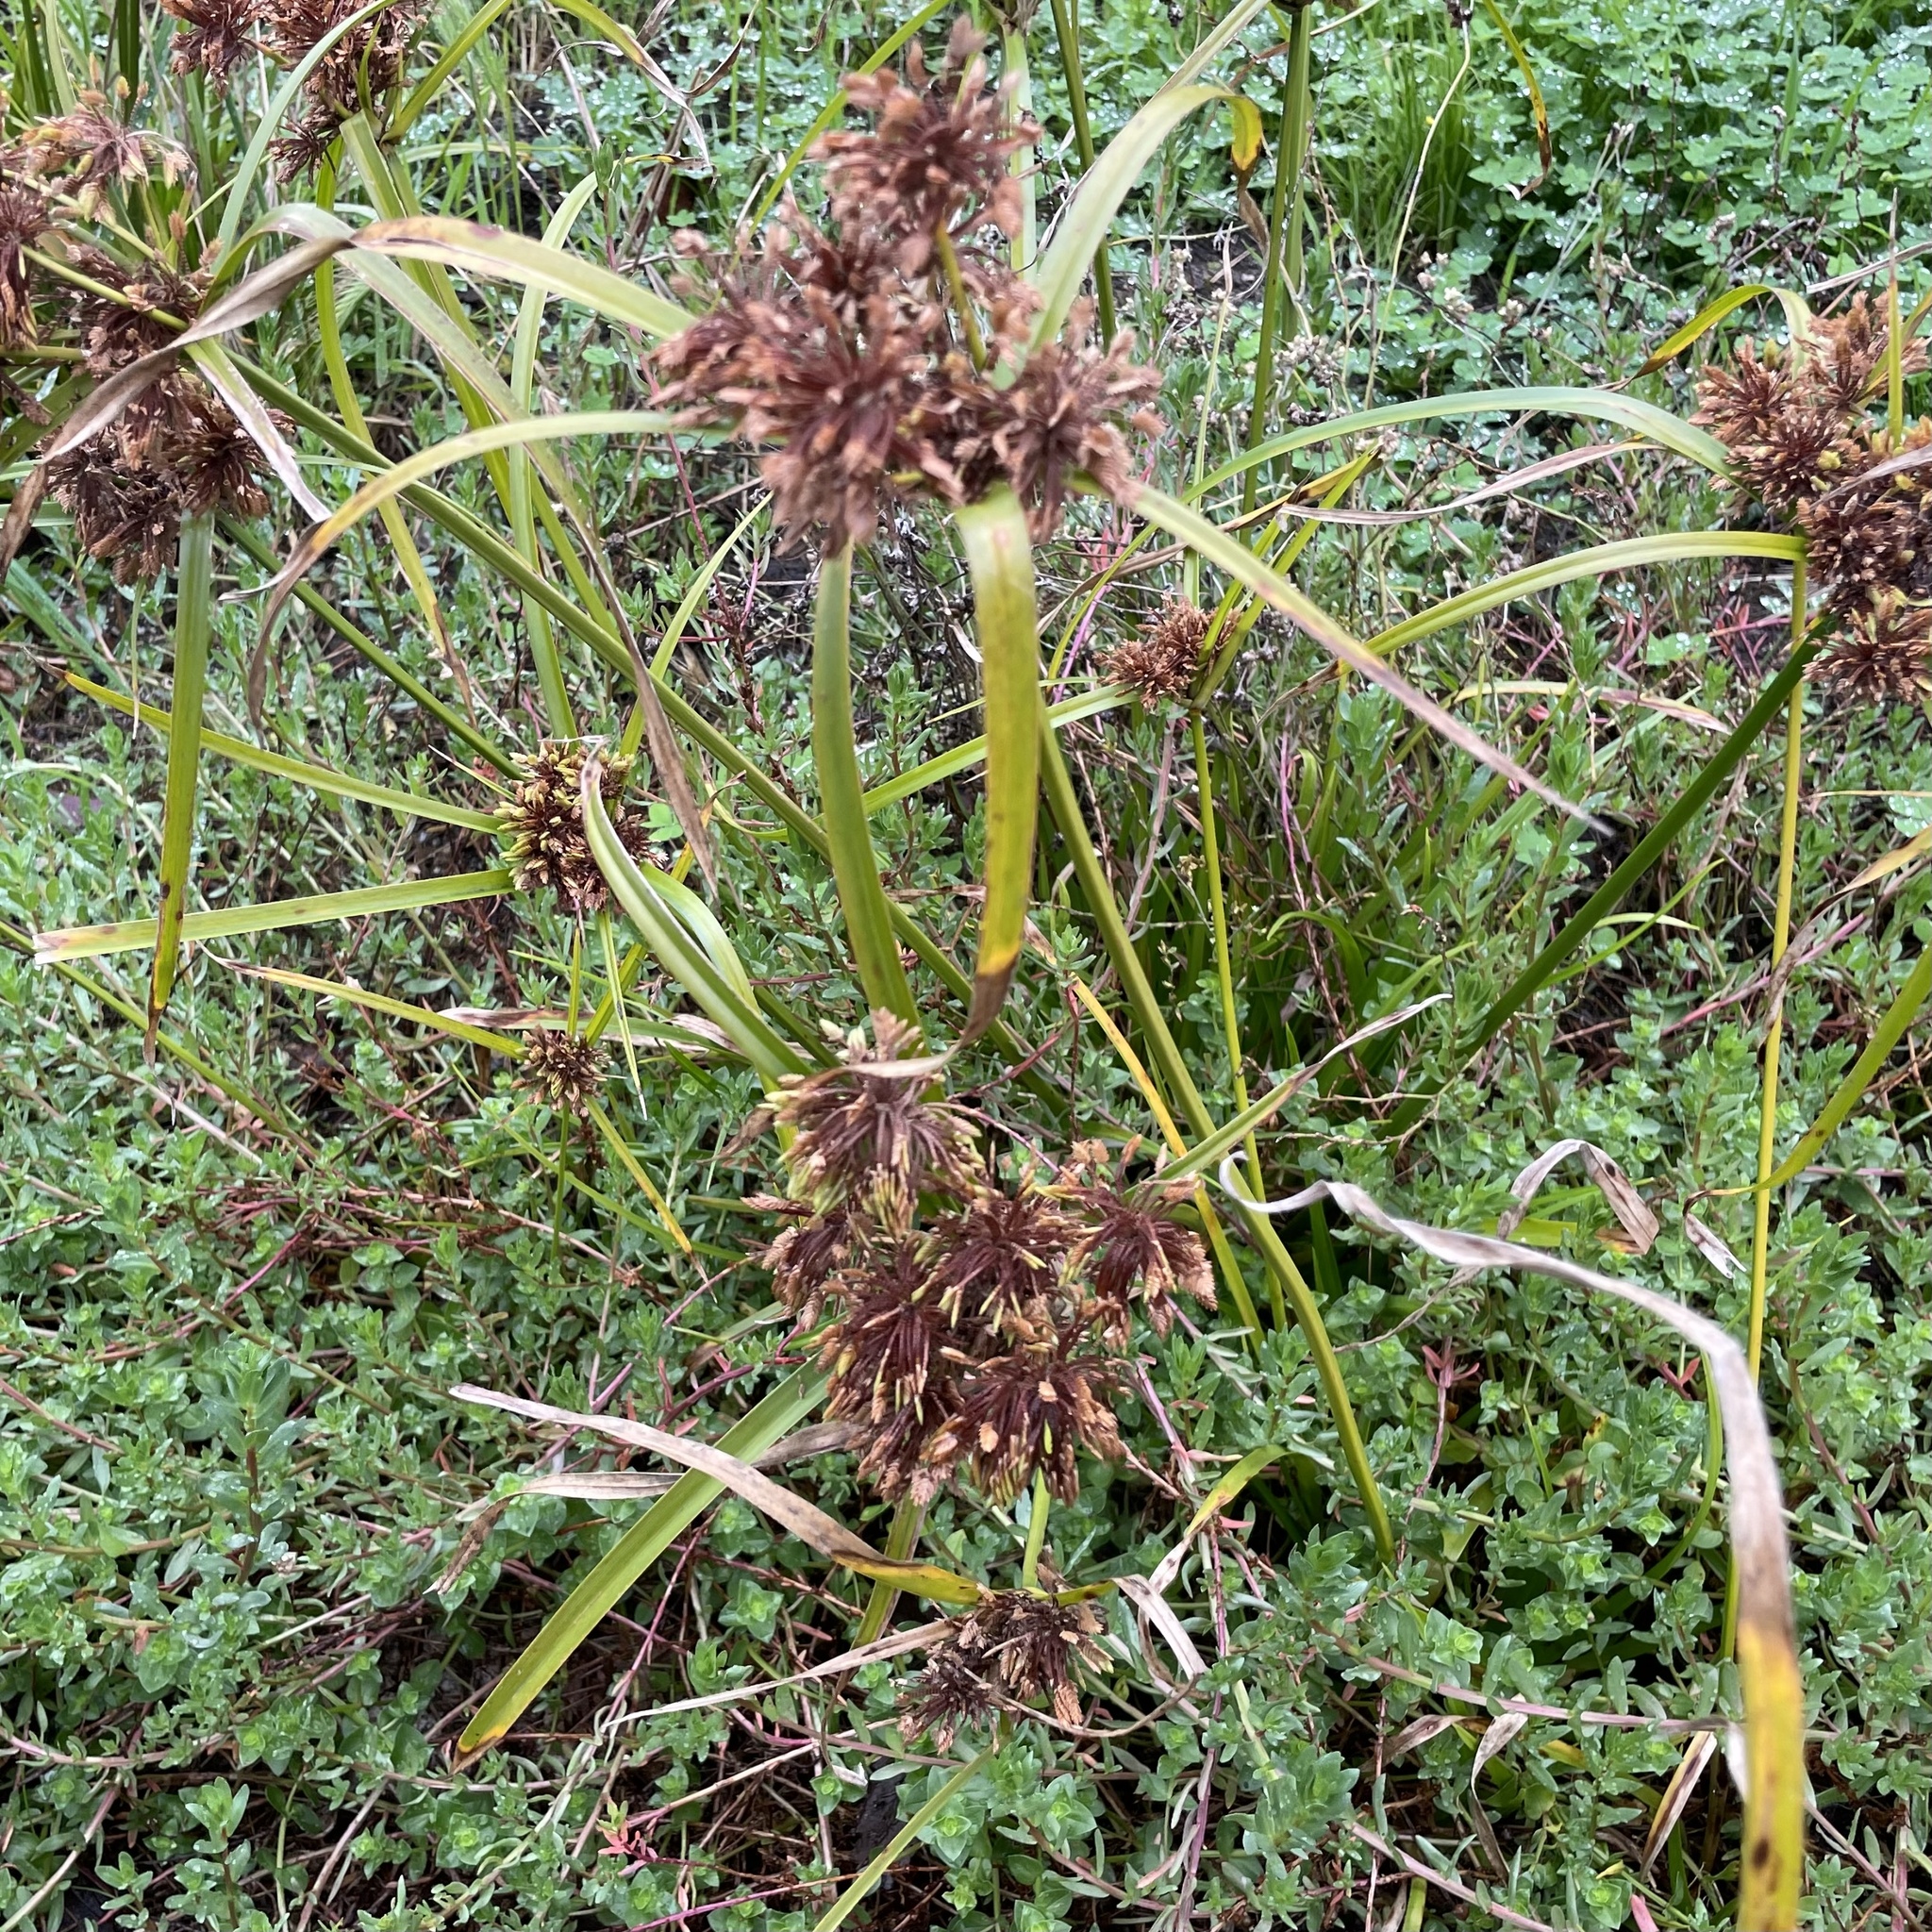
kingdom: Plantae
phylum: Tracheophyta
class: Liliopsida
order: Poales
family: Cyperaceae
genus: Cyperus
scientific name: Cyperus eragrostis
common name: Tall flatsedge
